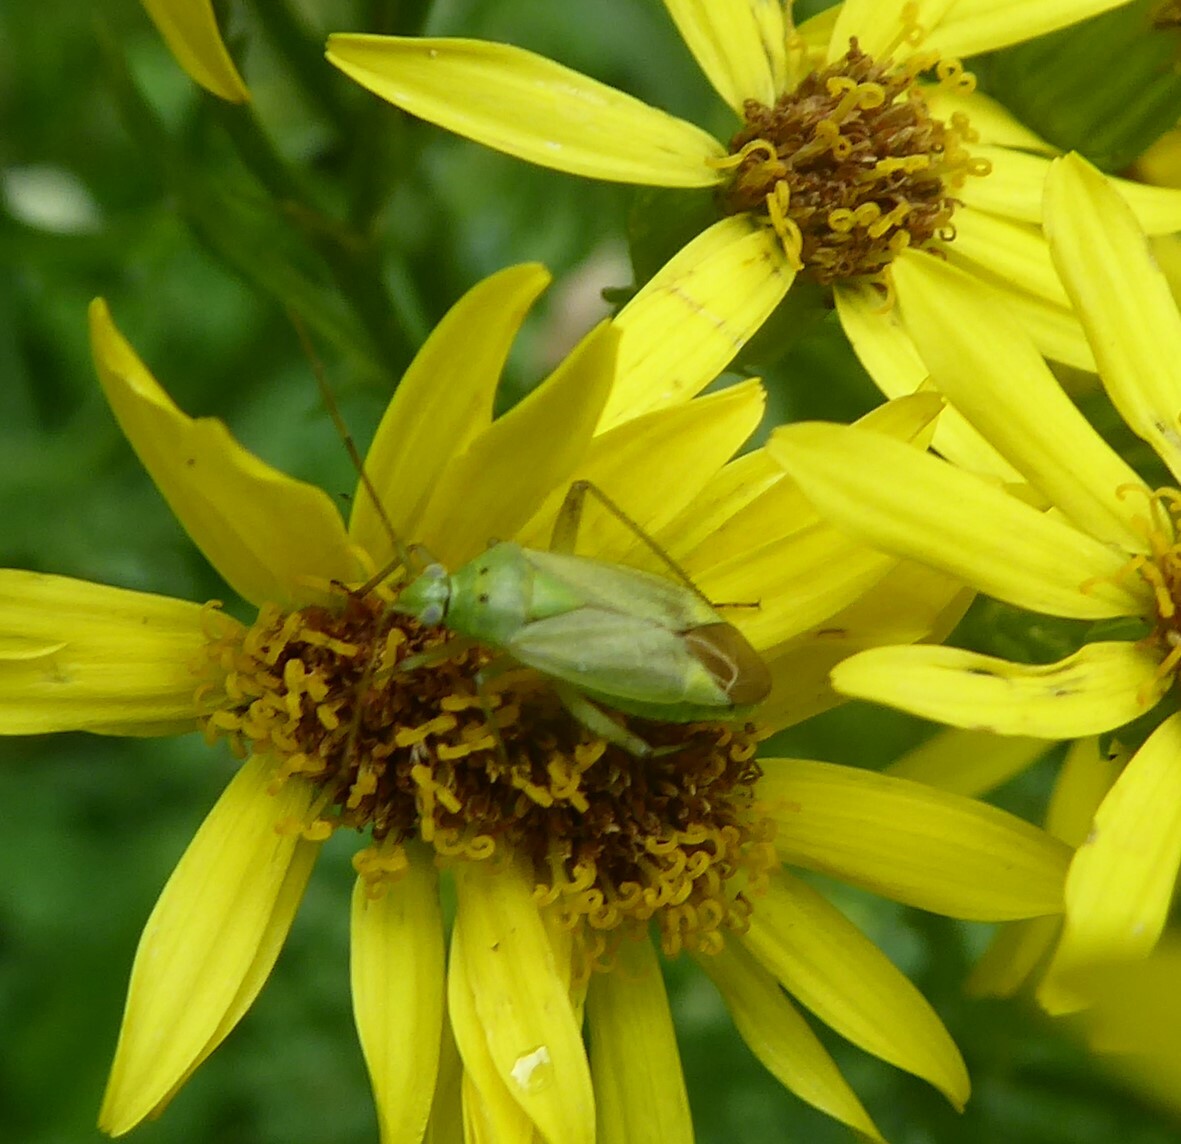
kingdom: Animalia
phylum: Arthropoda
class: Insecta
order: Hemiptera
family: Miridae
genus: Closterotomus
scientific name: Closterotomus norvegicus
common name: Plant bug
